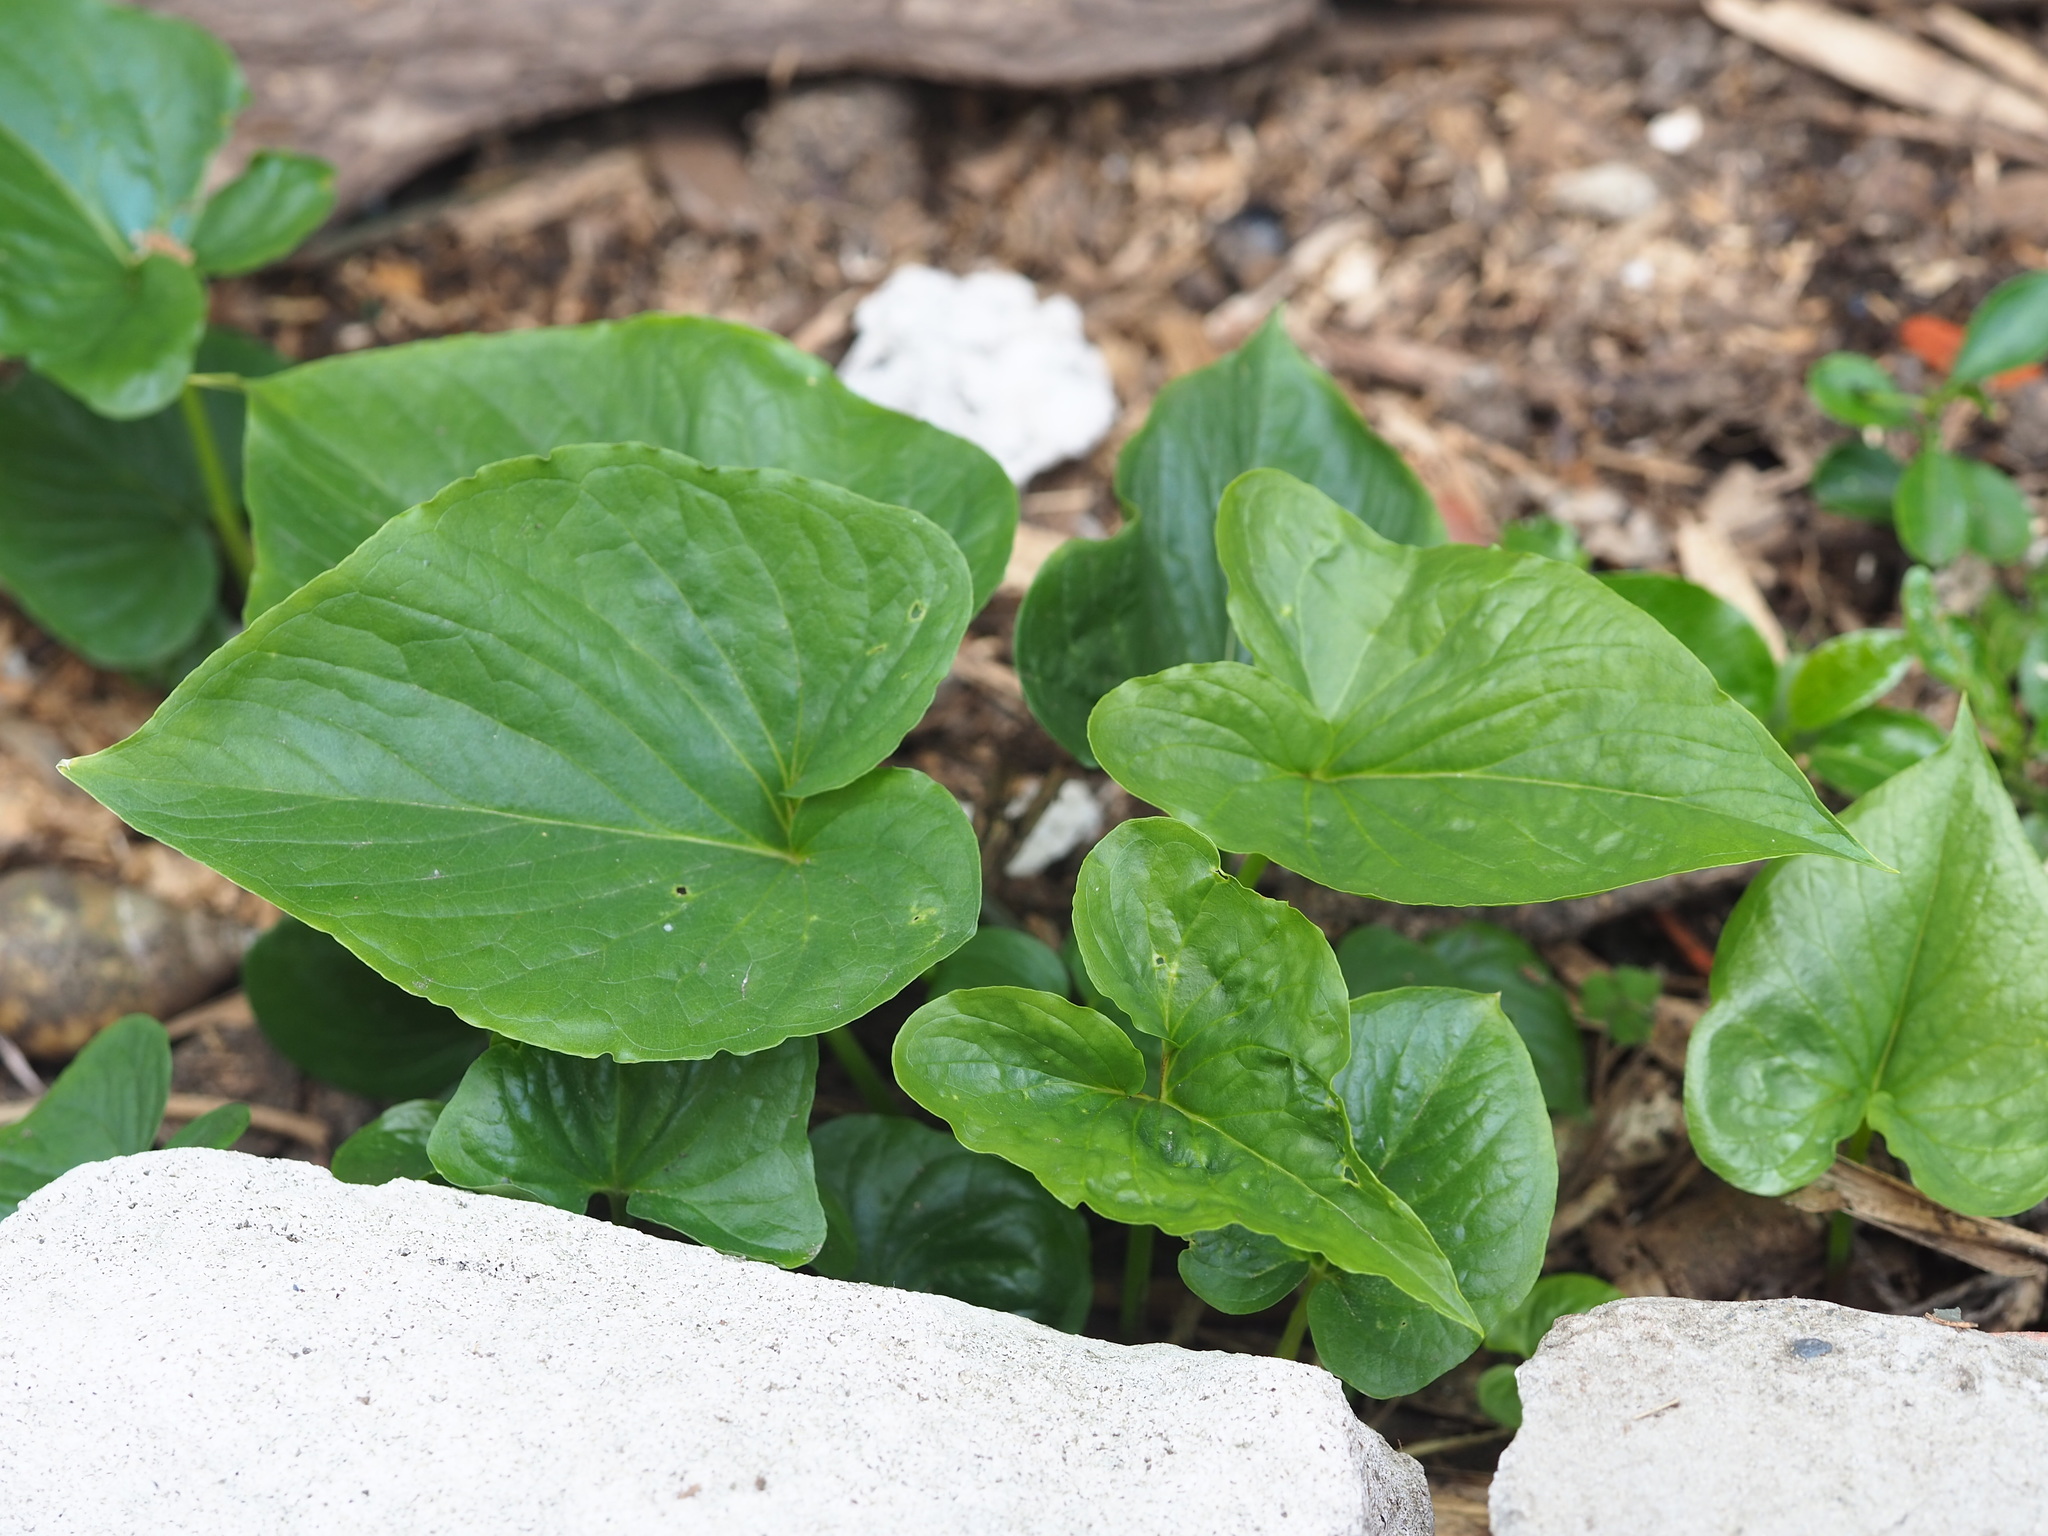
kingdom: Plantae
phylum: Tracheophyta
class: Liliopsida
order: Alismatales
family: Araceae
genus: Typhonium
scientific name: Typhonium roxburghii
